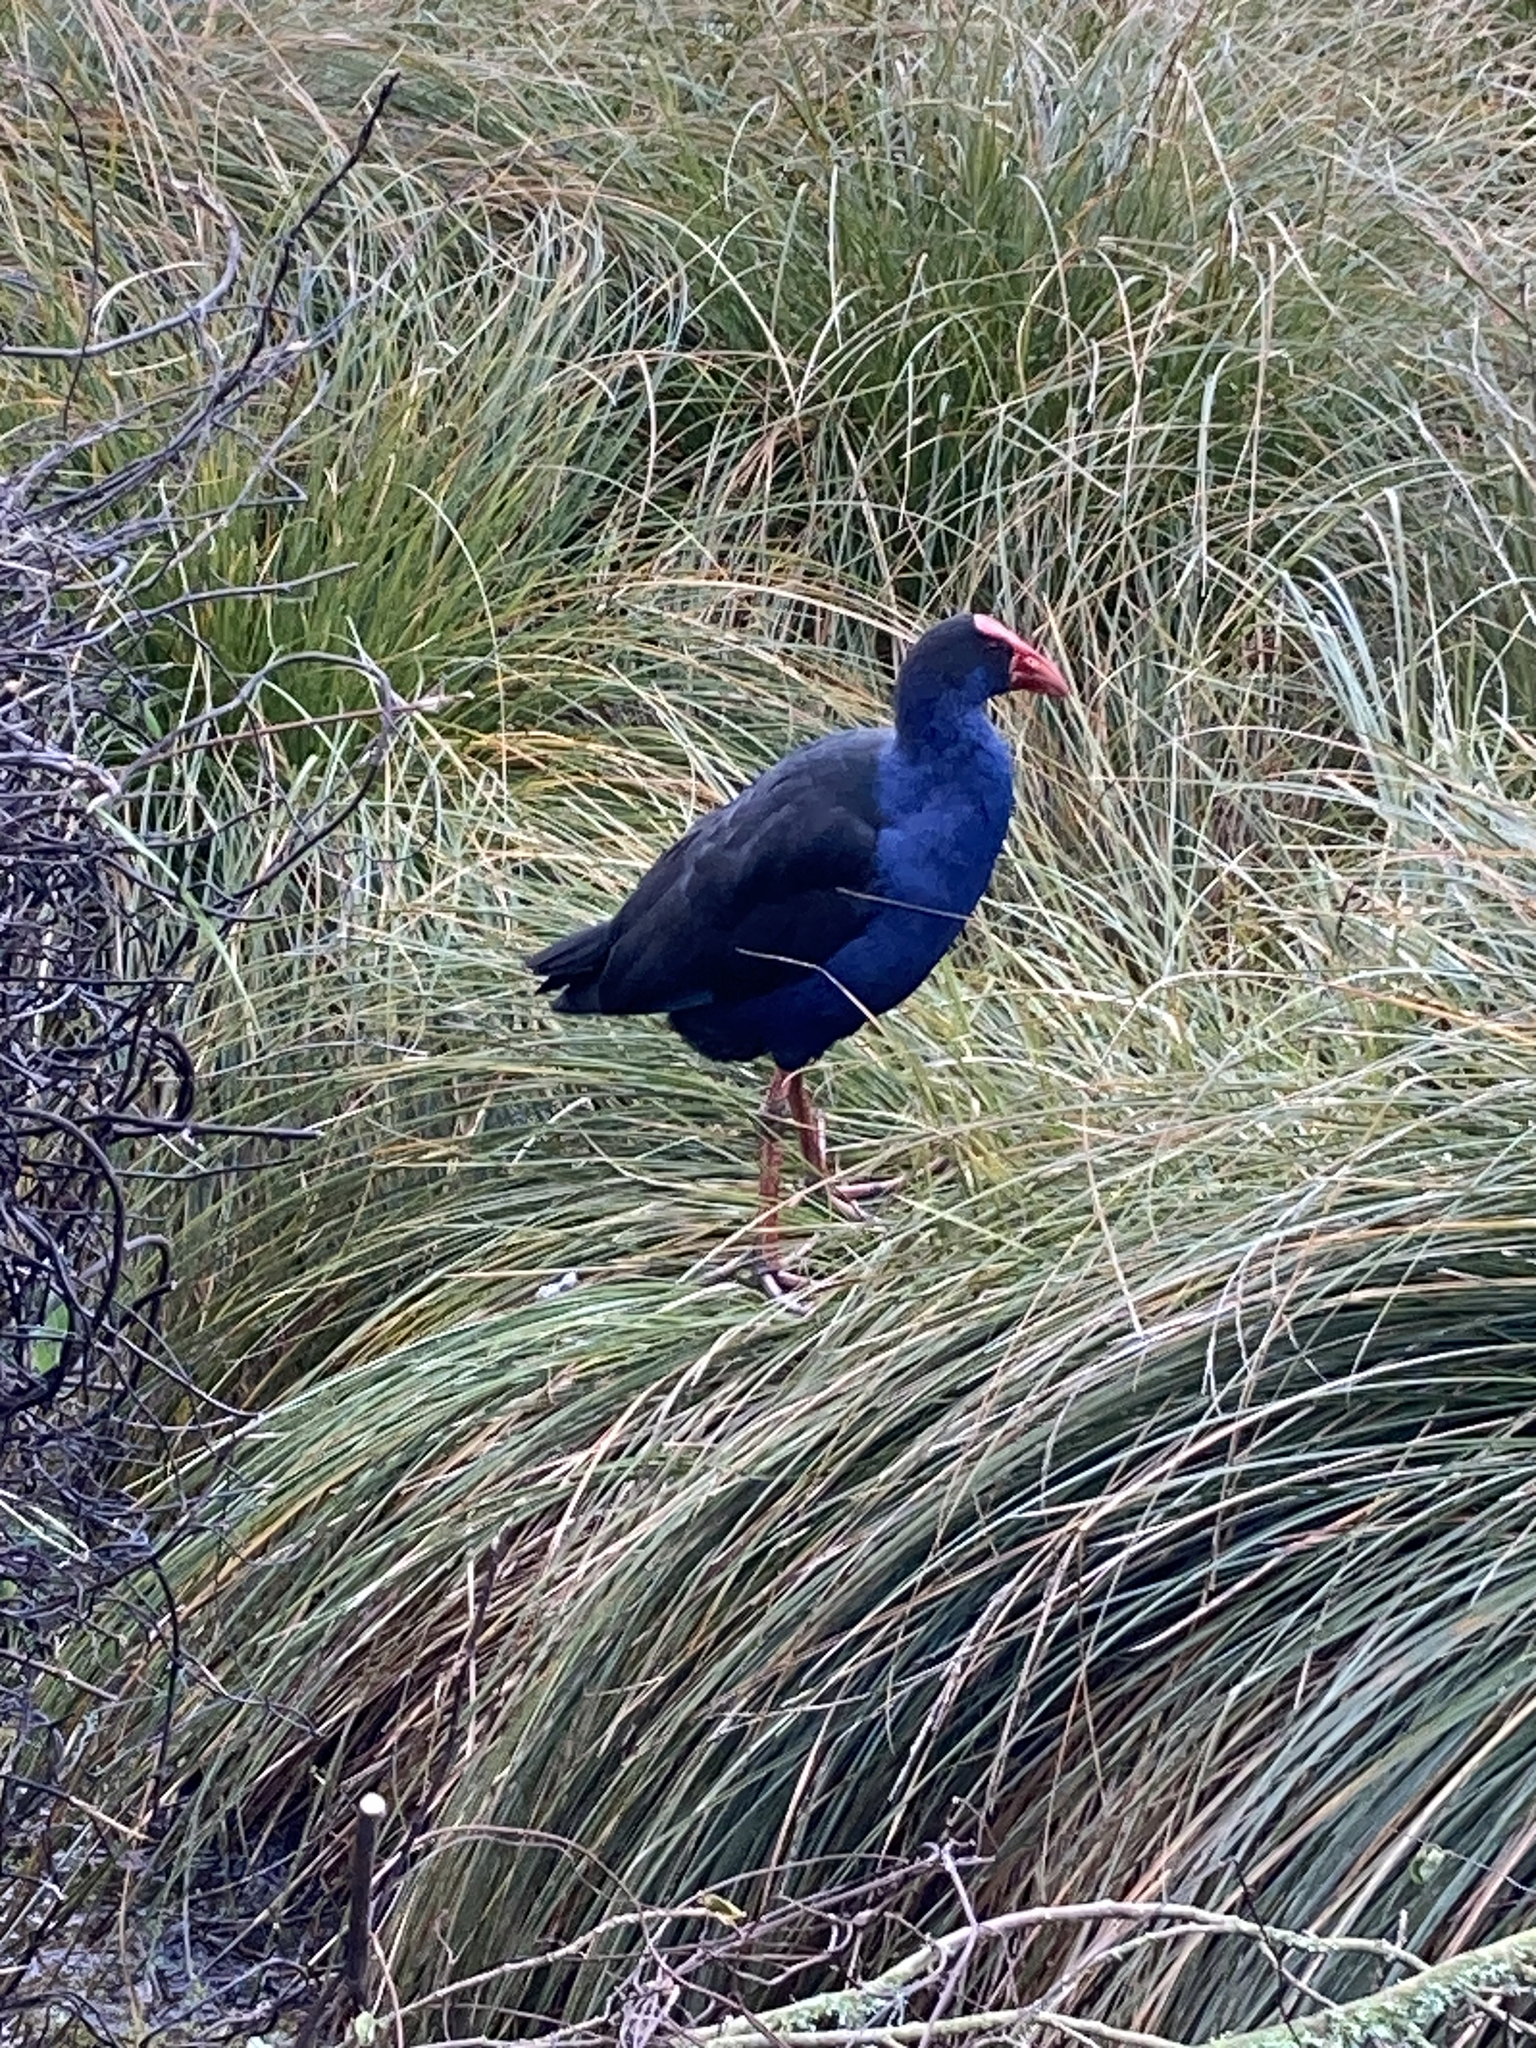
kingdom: Animalia
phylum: Chordata
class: Aves
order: Gruiformes
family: Rallidae
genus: Porphyrio
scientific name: Porphyrio melanotus
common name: Australasian swamphen
